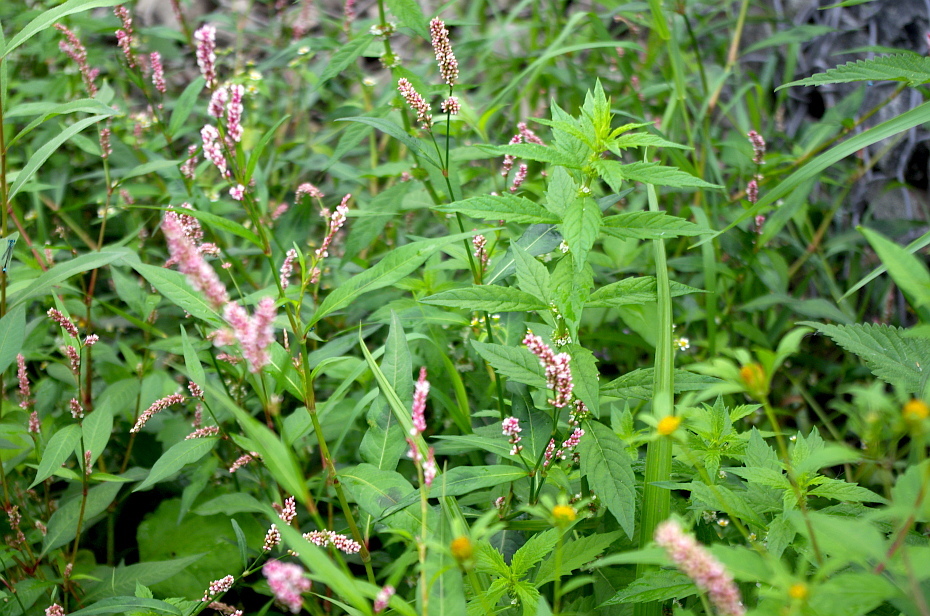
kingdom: Plantae
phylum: Tracheophyta
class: Magnoliopsida
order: Caryophyllales
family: Polygonaceae
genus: Persicaria
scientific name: Persicaria maculosa
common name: Redshank
